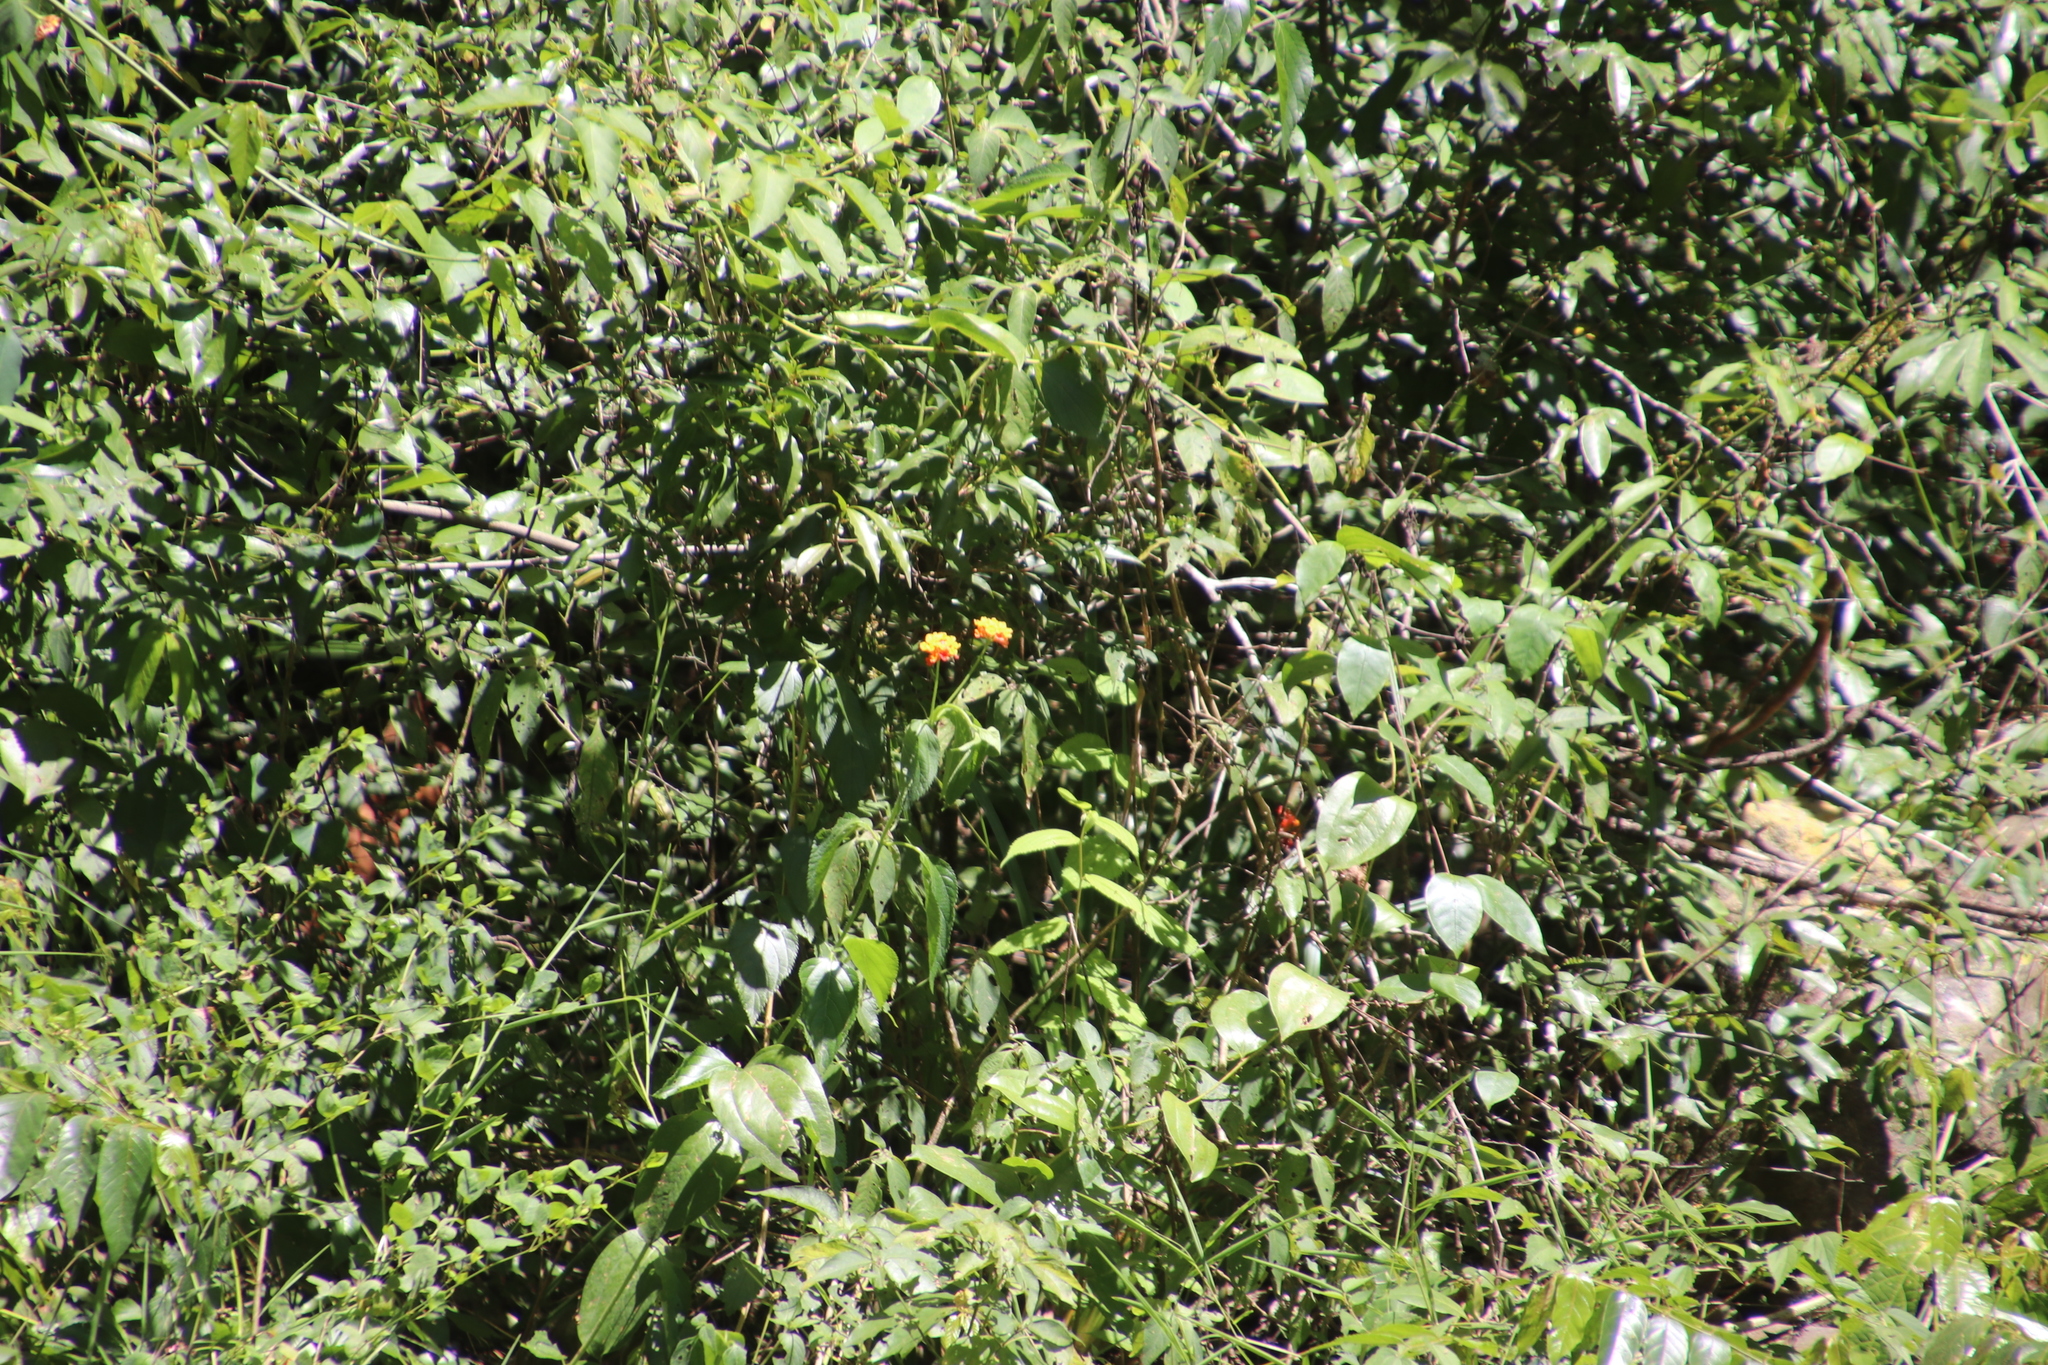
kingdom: Plantae
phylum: Tracheophyta
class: Magnoliopsida
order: Rosales
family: Rosaceae
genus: Rubus
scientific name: Rubus niveus
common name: Snowpeaks raspberry
